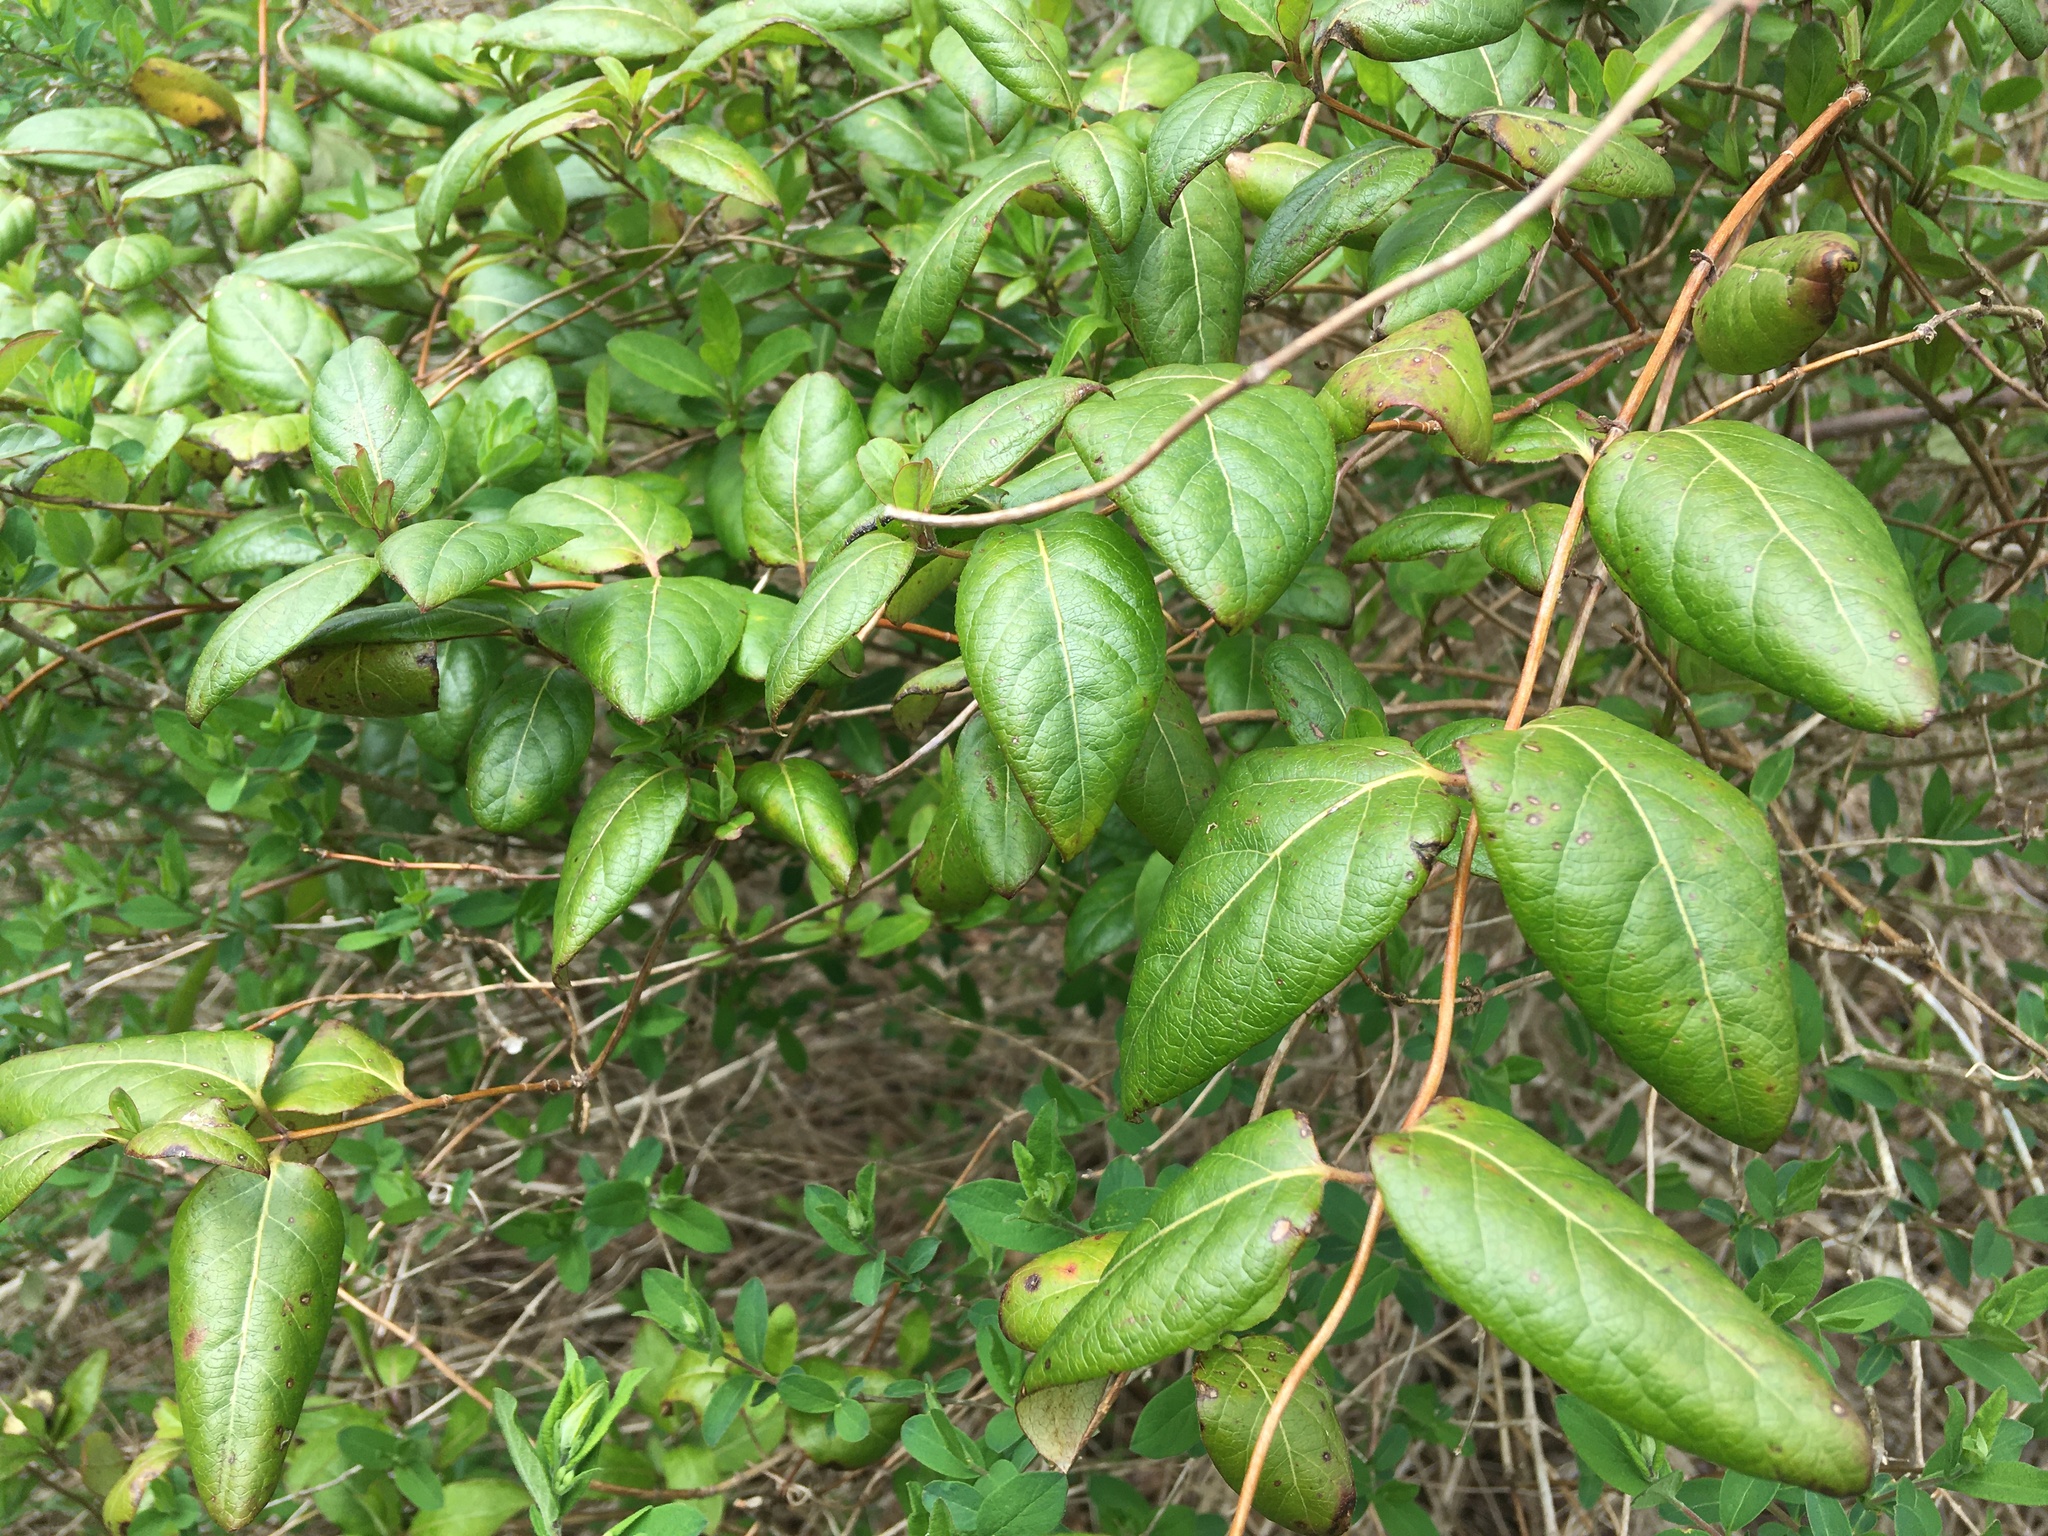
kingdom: Plantae
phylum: Tracheophyta
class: Magnoliopsida
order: Dipsacales
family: Caprifoliaceae
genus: Lonicera
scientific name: Lonicera japonica
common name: Japanese honeysuckle
